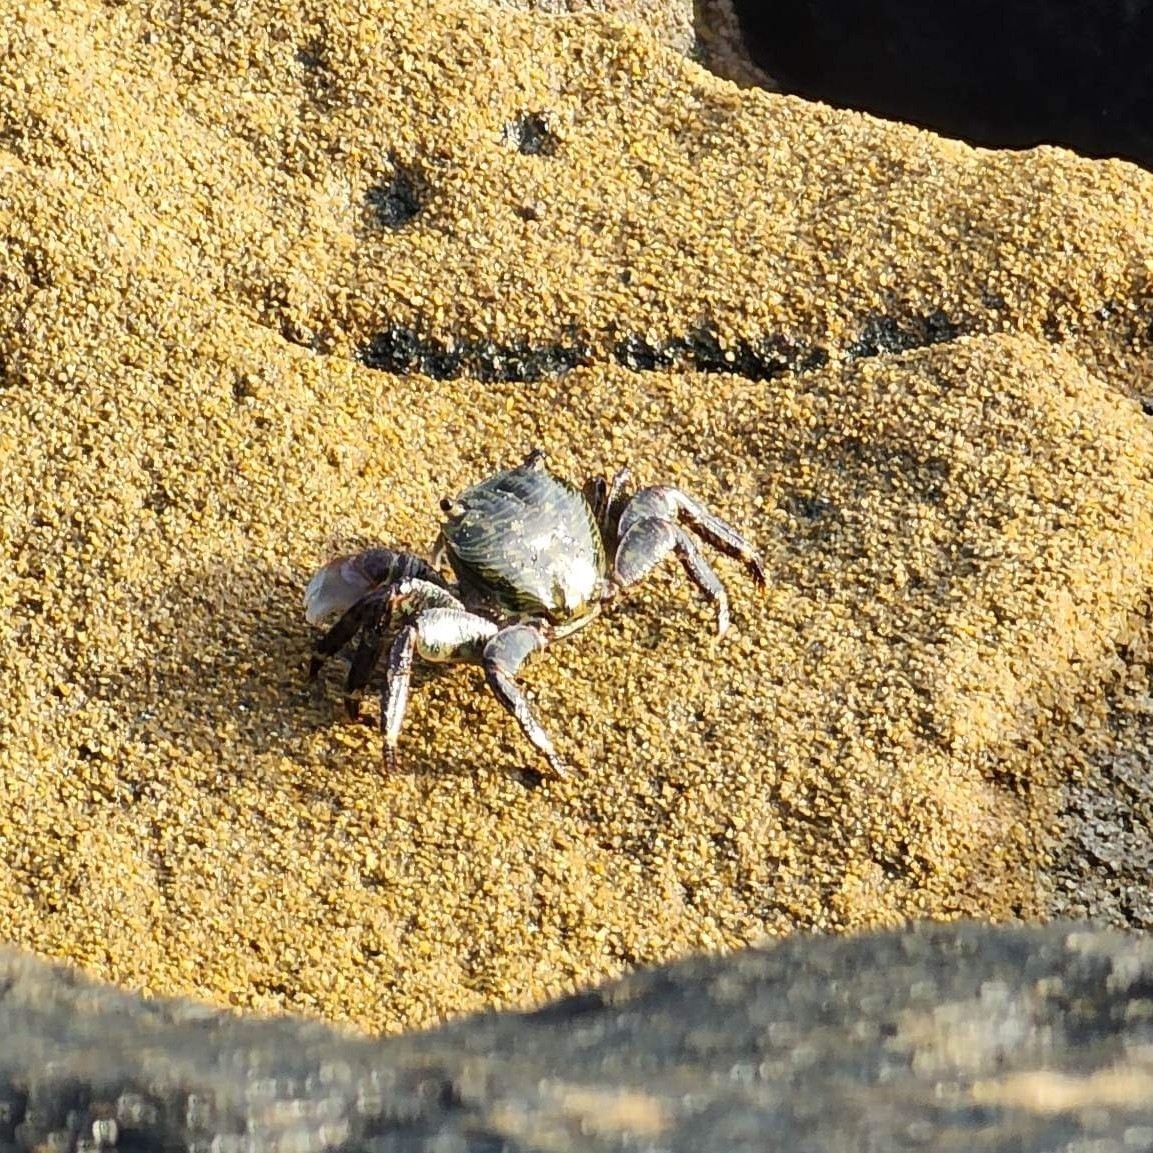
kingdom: Animalia
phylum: Arthropoda
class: Malacostraca
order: Decapoda
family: Grapsidae
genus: Pachygrapsus
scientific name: Pachygrapsus crassipes
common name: Striped shore crab
